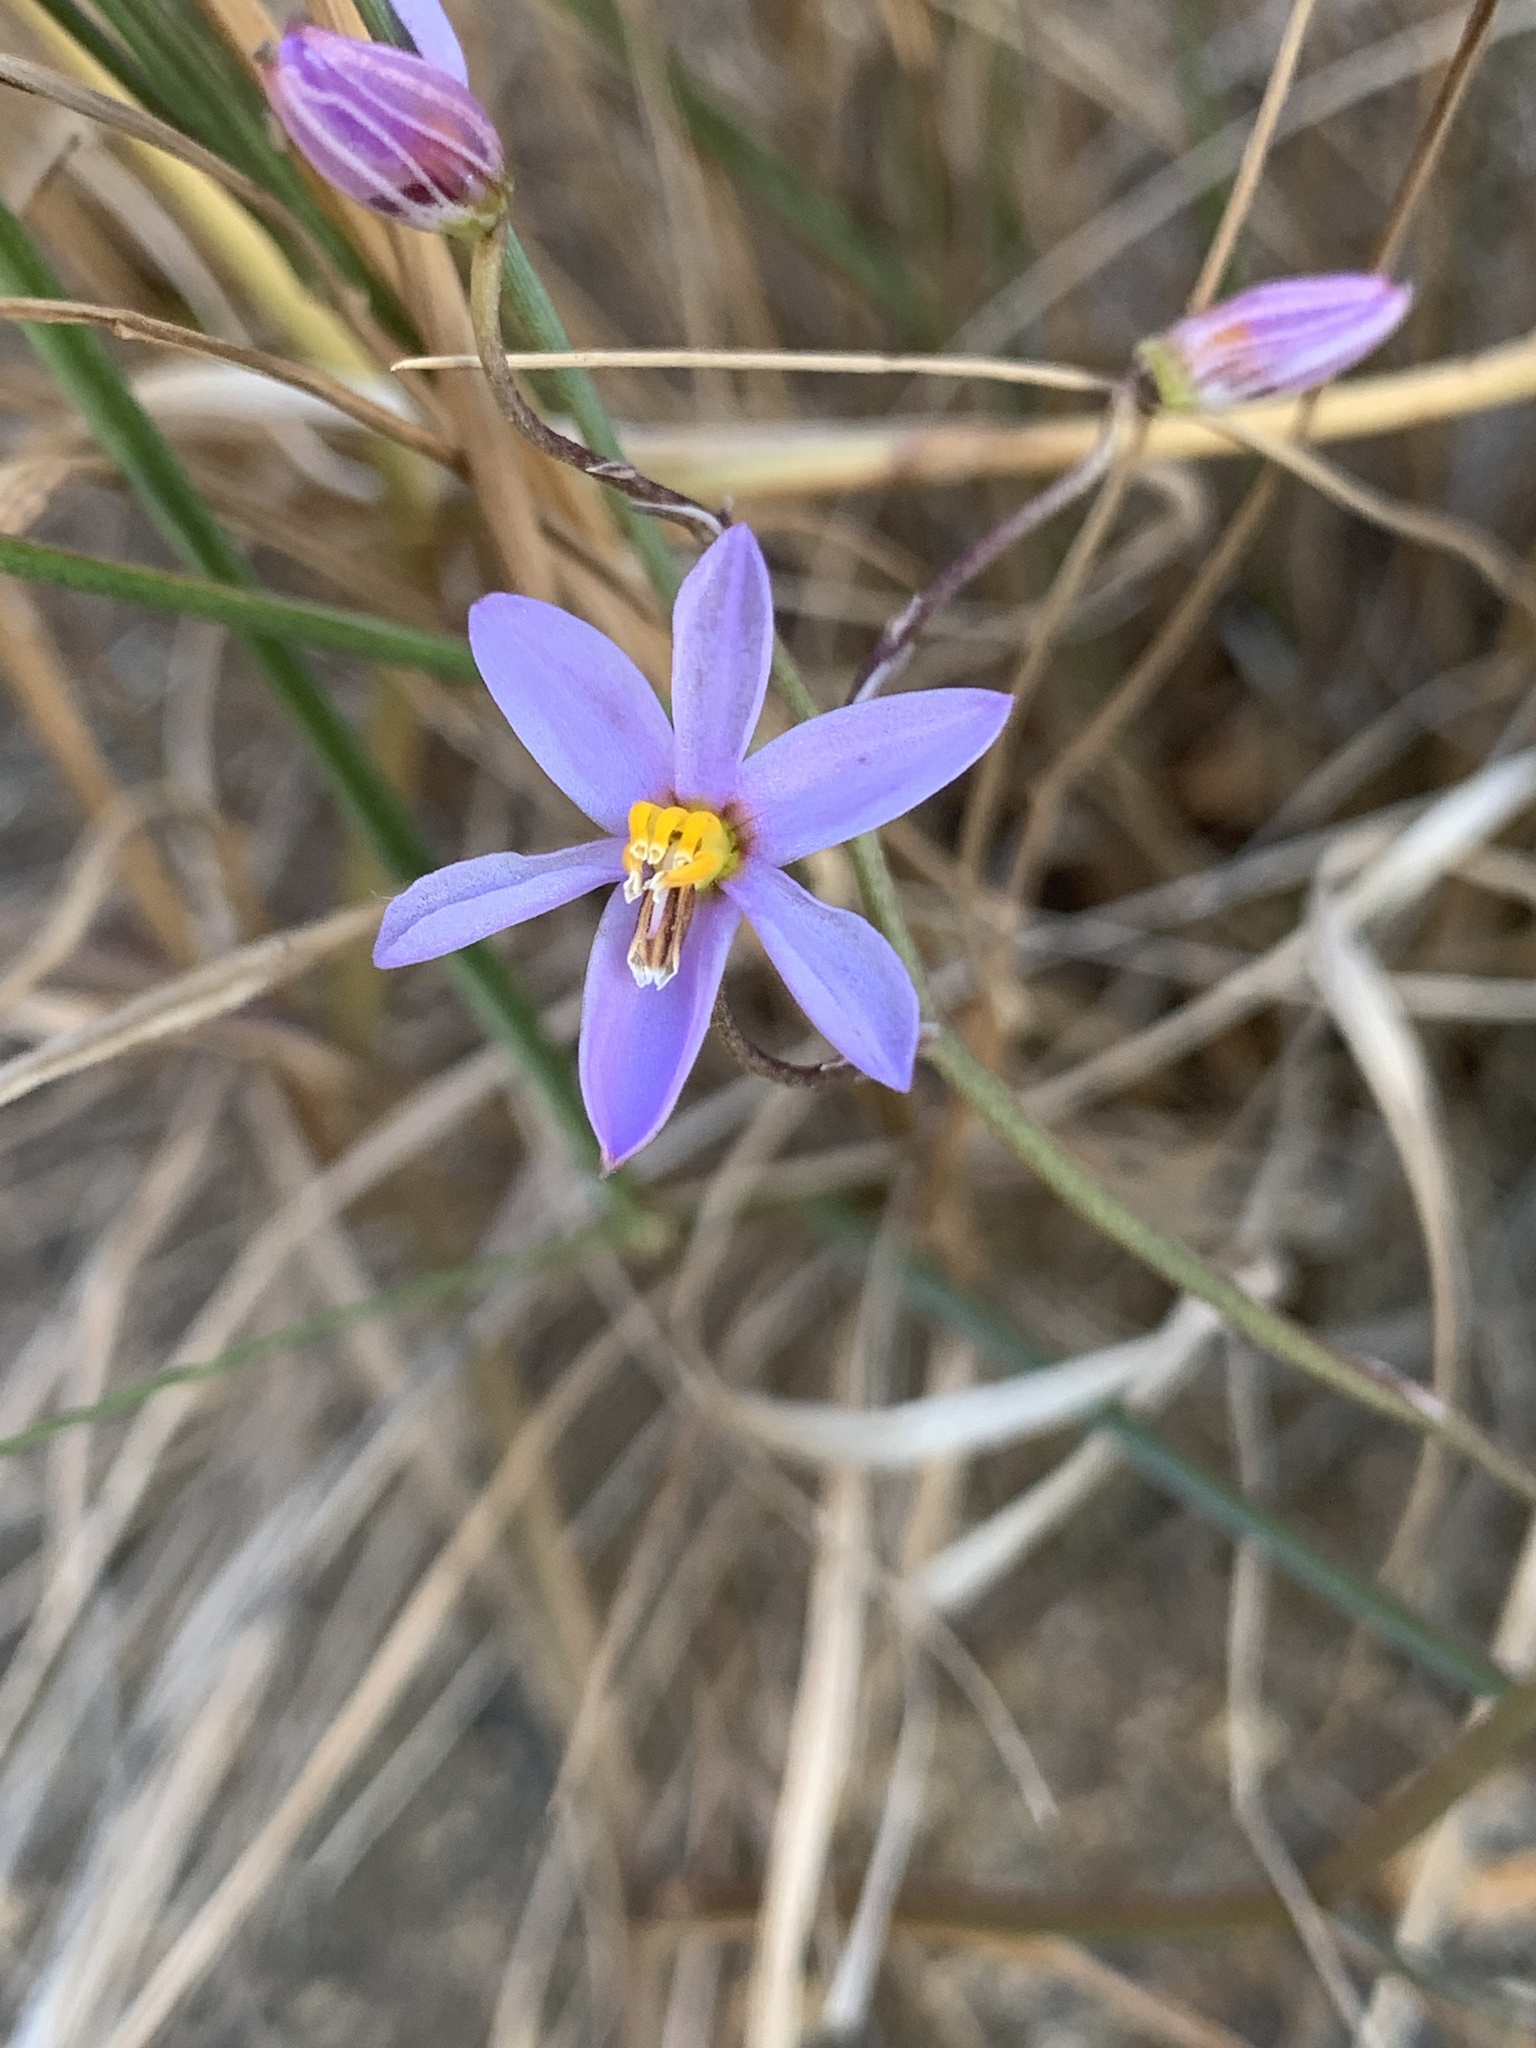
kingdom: Plantae
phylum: Tracheophyta
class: Liliopsida
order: Asparagales
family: Tecophilaeaceae
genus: Cyanella
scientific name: Cyanella hyacinthoides
